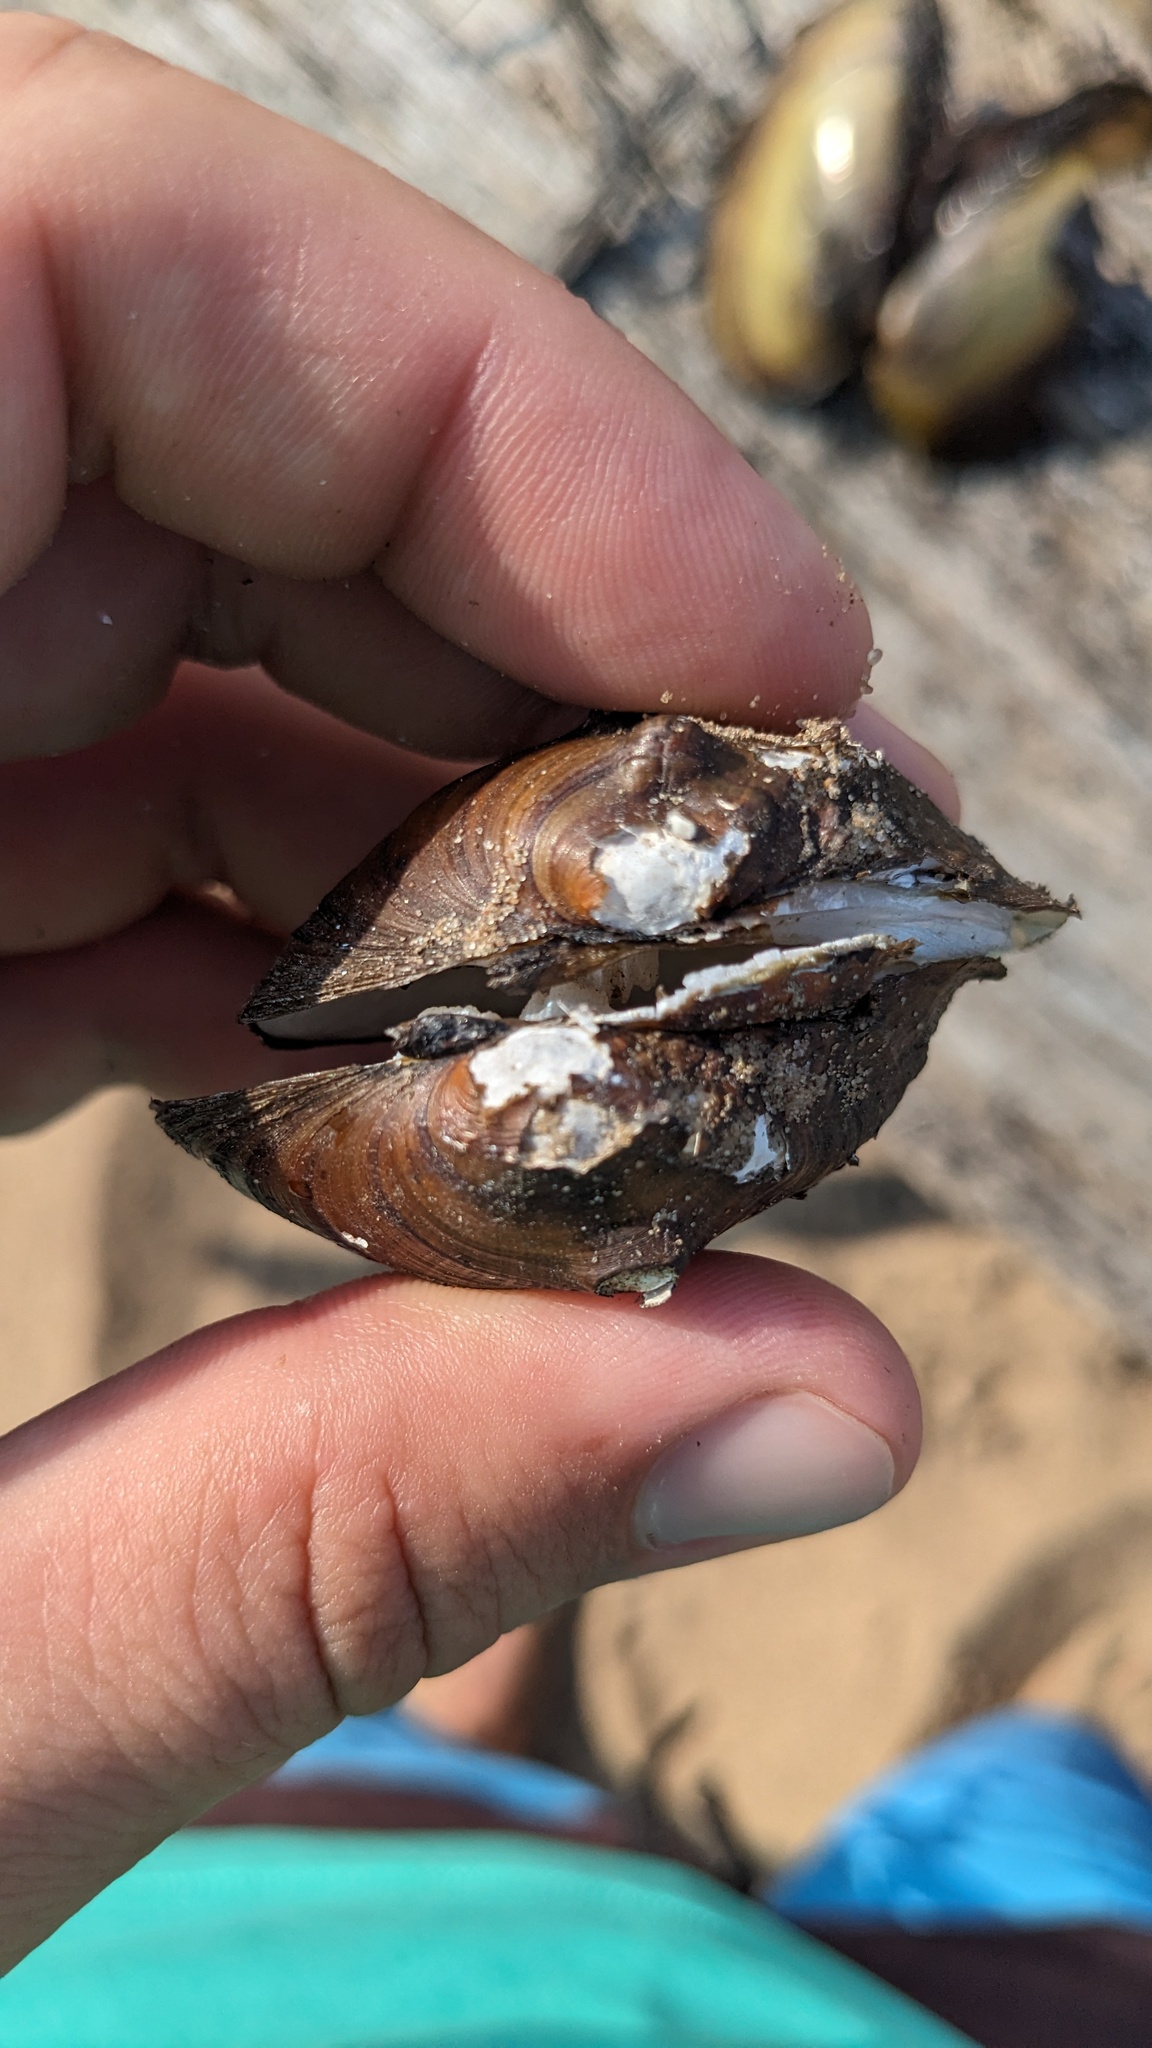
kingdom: Animalia
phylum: Mollusca
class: Bivalvia
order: Unionida
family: Unionidae
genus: Obliquaria
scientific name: Obliquaria reflexa
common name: Threehorn wartyback
